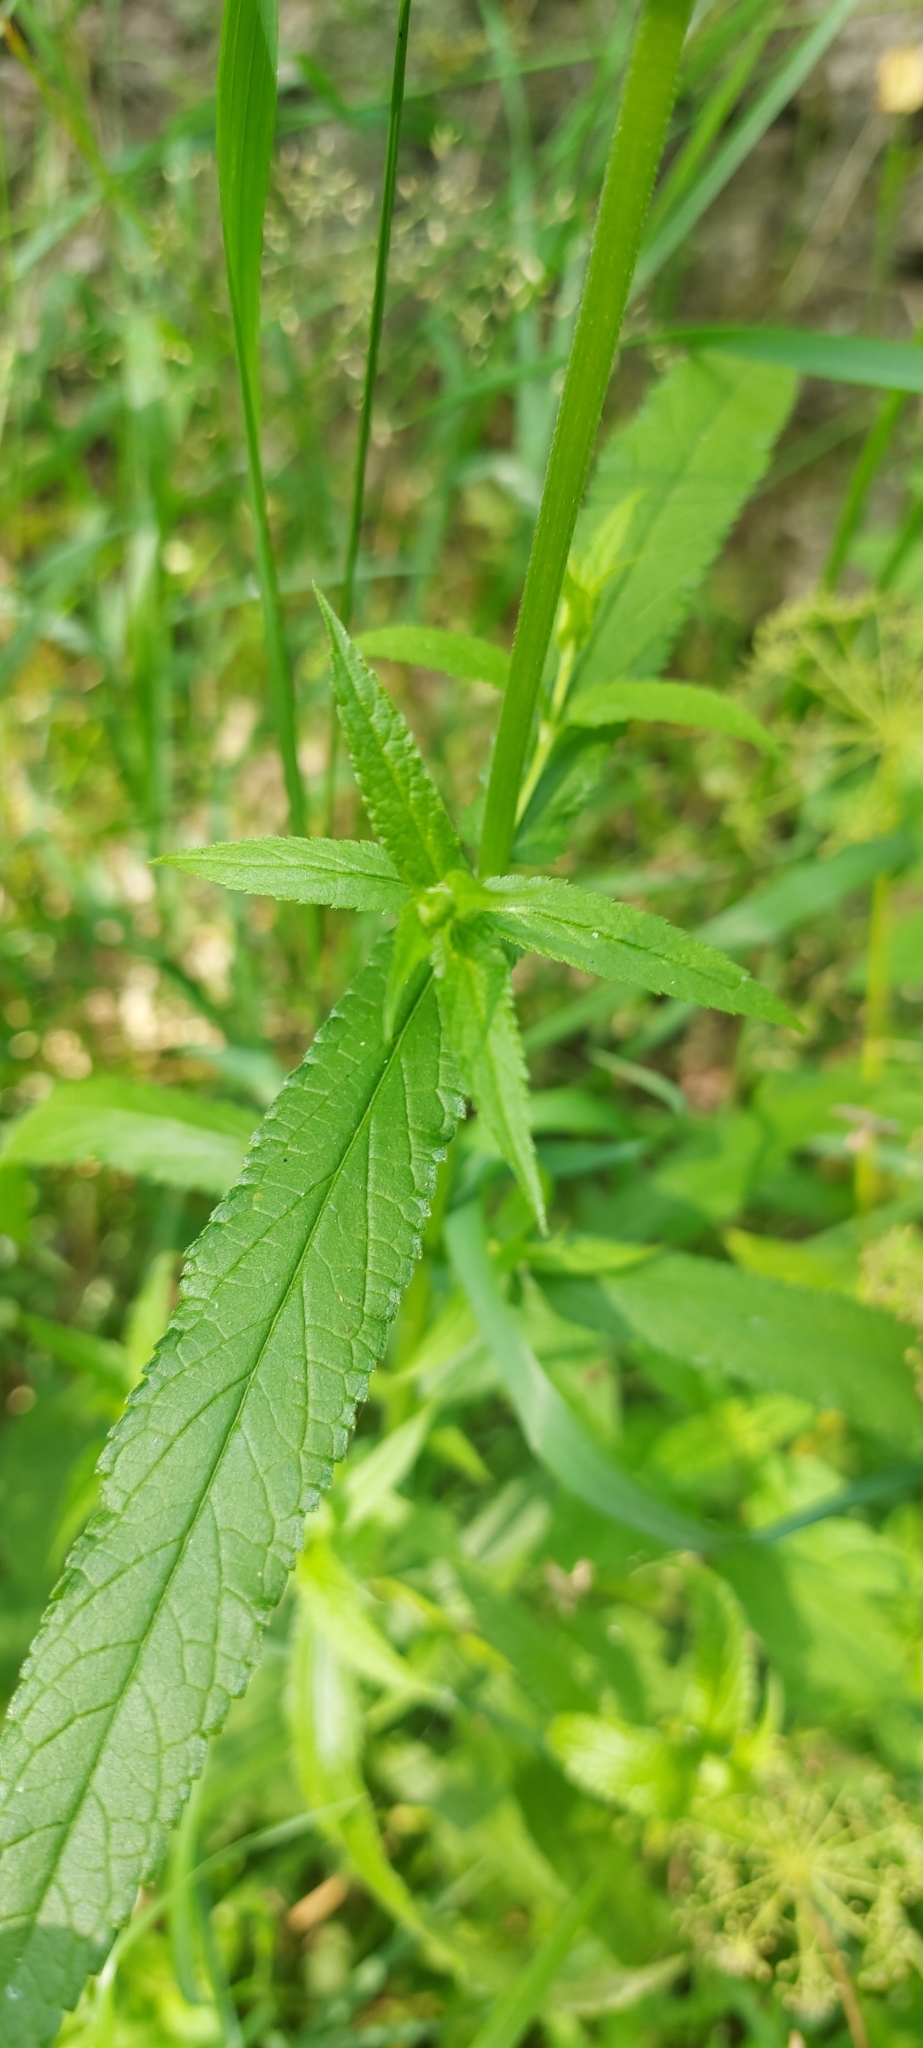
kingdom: Plantae
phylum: Tracheophyta
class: Magnoliopsida
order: Lamiales
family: Lamiaceae
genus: Stachys
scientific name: Stachys palustris
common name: Marsh woundwort
